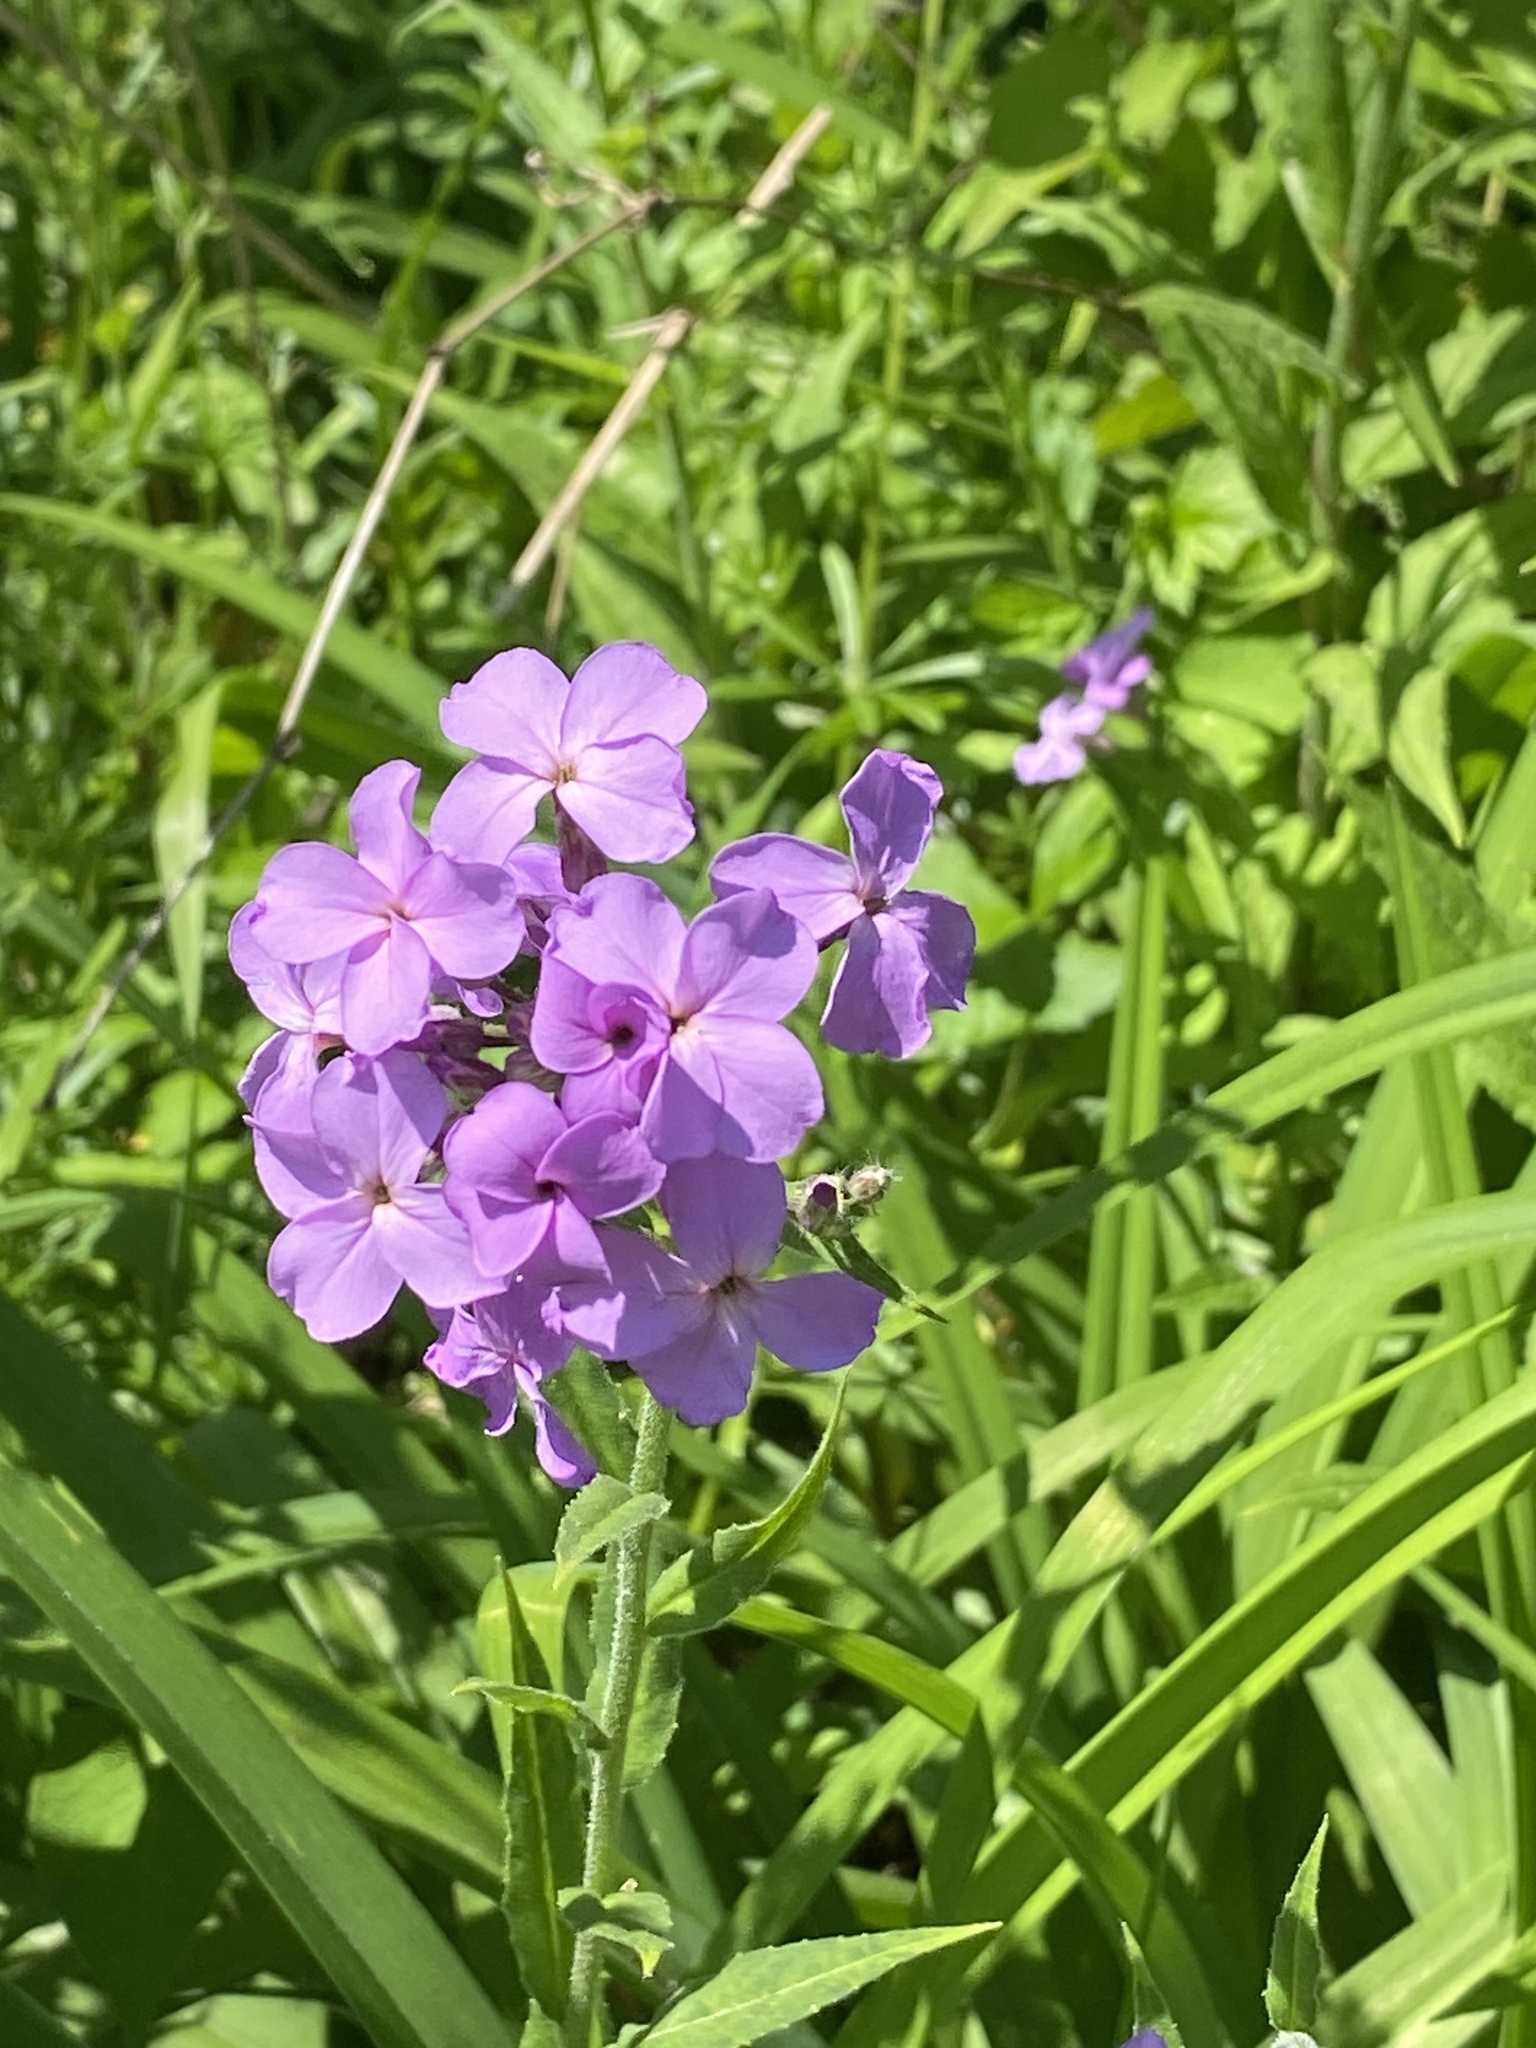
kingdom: Plantae
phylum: Tracheophyta
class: Magnoliopsida
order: Brassicales
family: Brassicaceae
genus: Hesperis
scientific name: Hesperis matronalis
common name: Dame's-violet
